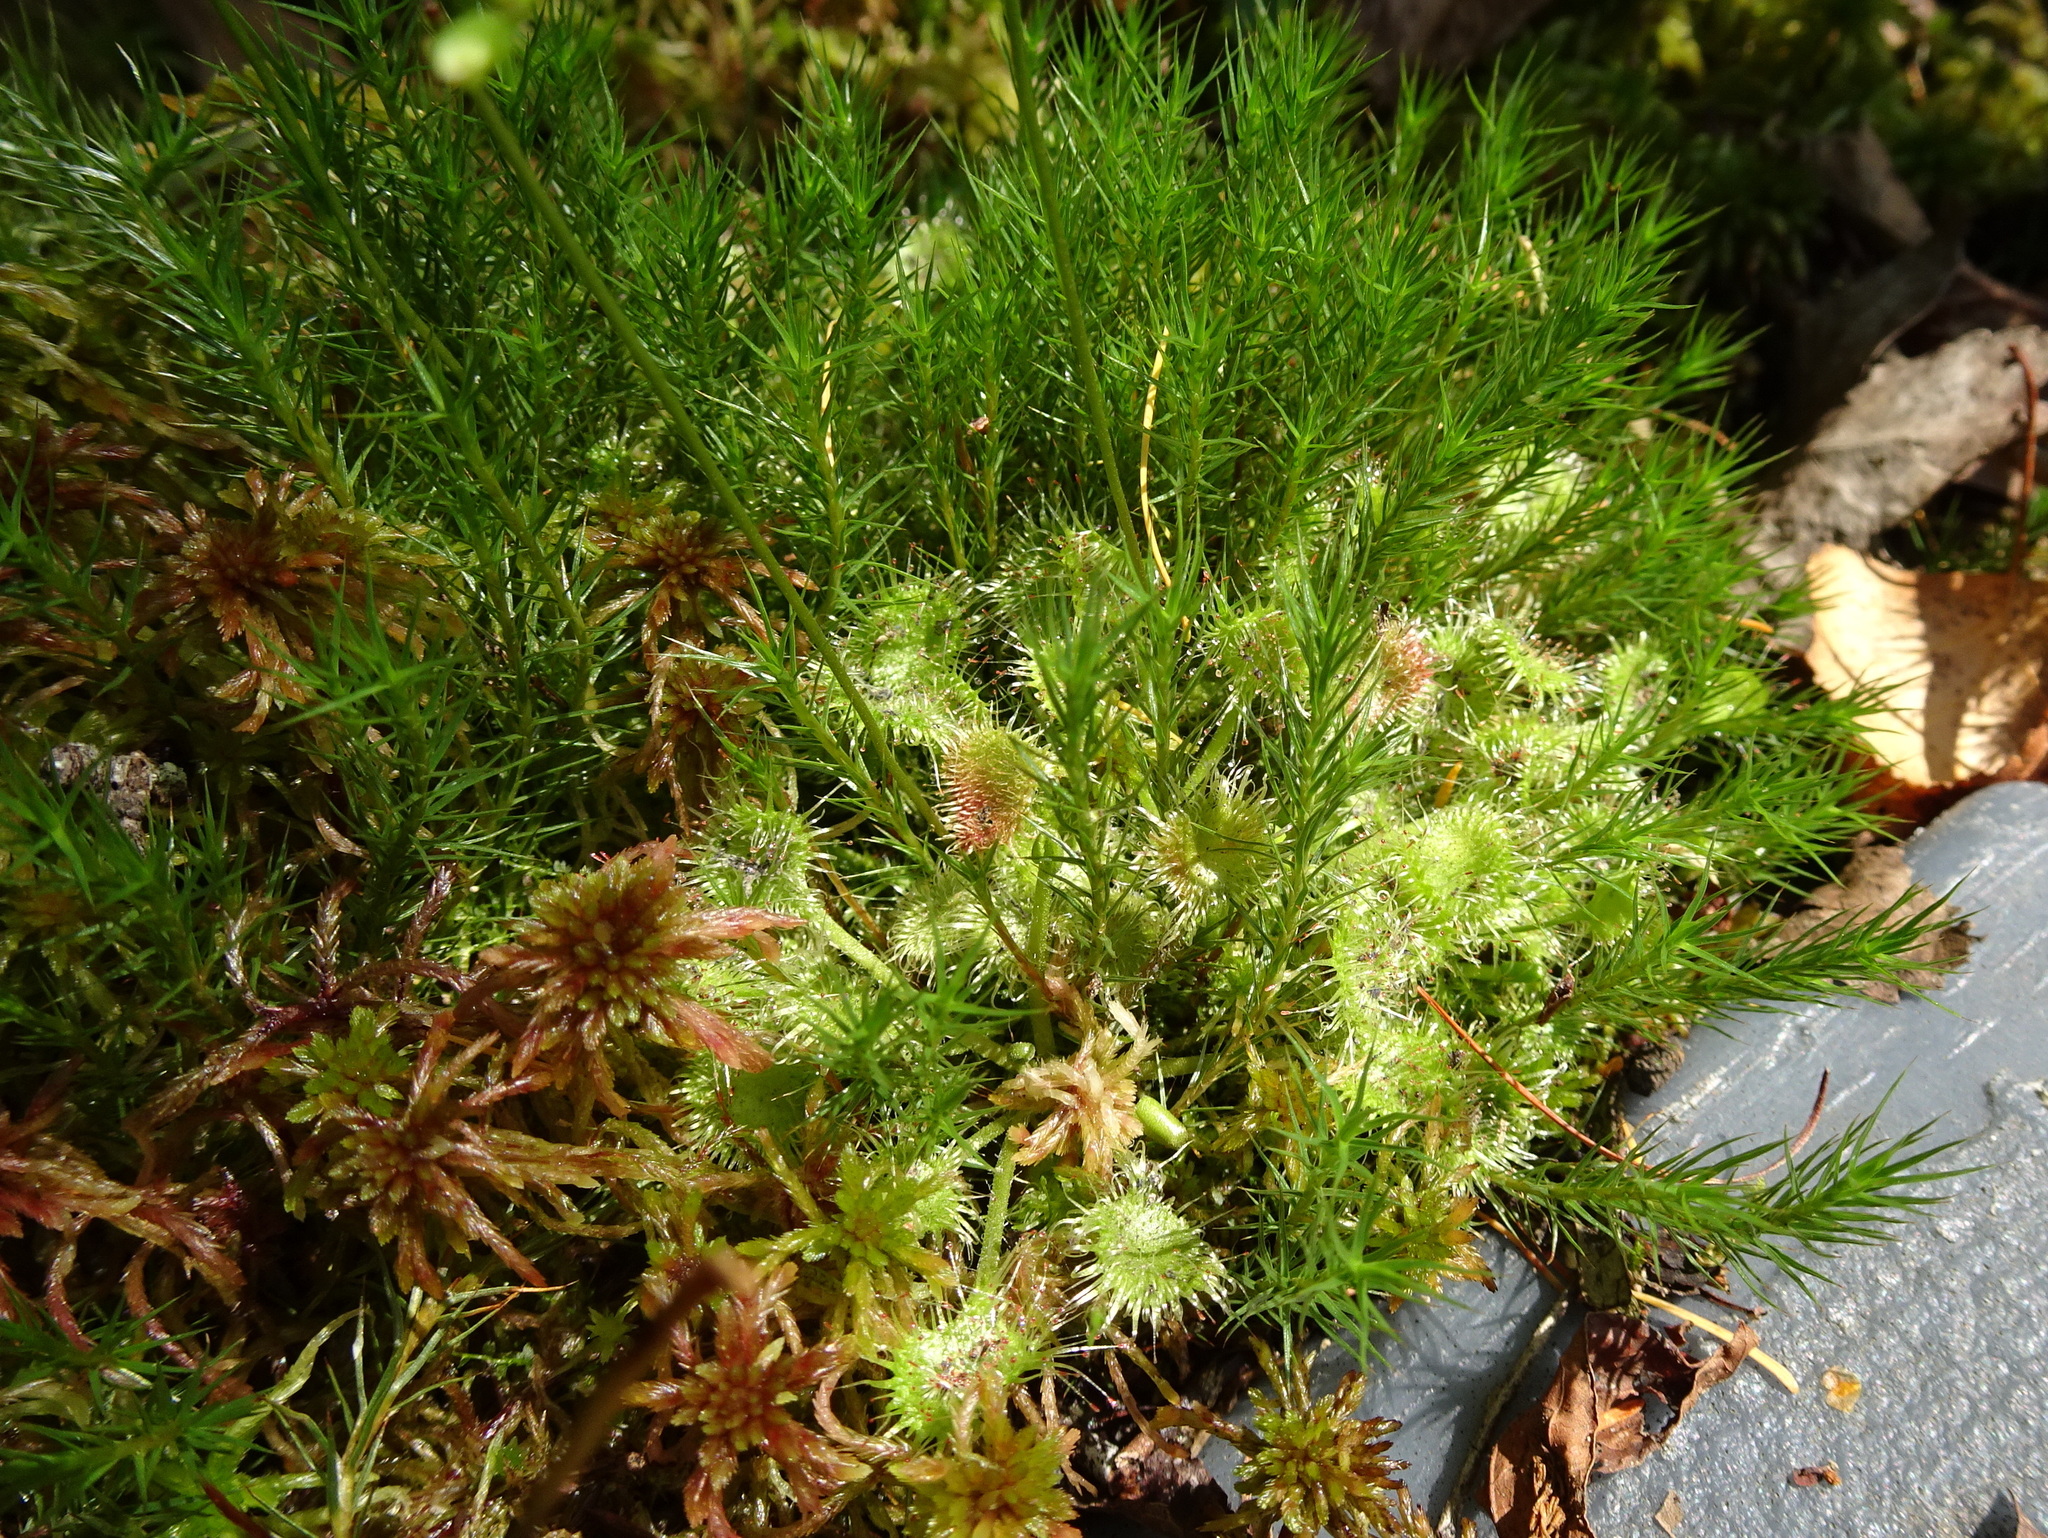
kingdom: Plantae
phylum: Tracheophyta
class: Magnoliopsida
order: Caryophyllales
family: Droseraceae
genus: Drosera
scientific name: Drosera rotundifolia
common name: Round-leaved sundew
